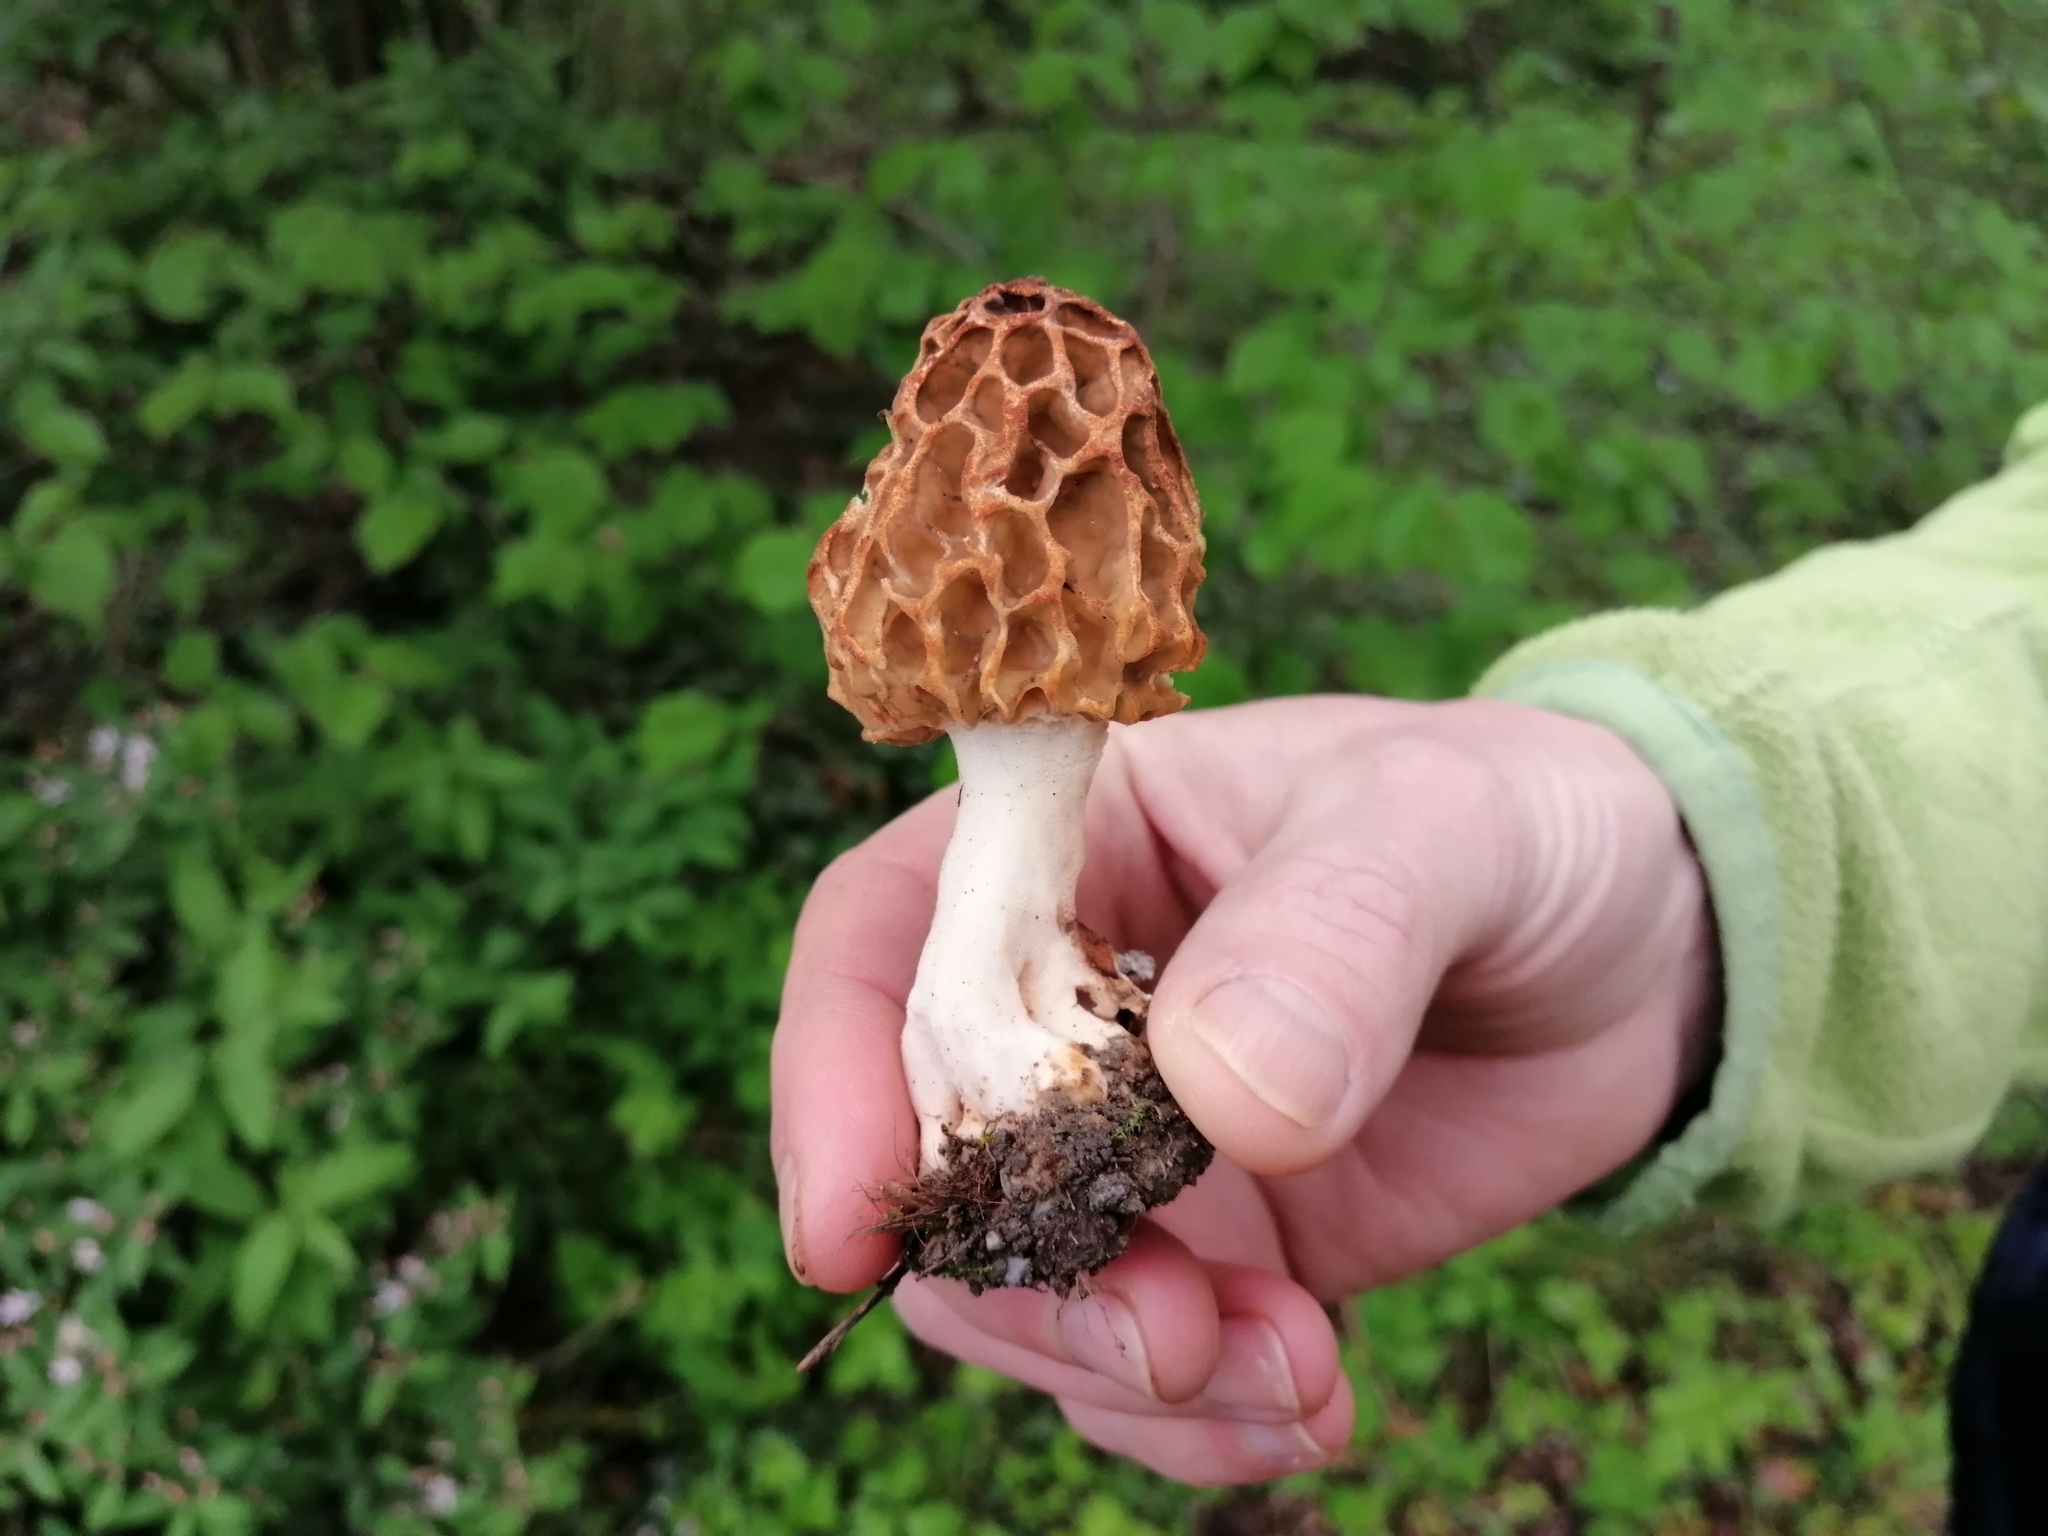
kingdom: Fungi
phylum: Ascomycota
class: Pezizomycetes
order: Pezizales
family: Morchellaceae
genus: Morchella
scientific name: Morchella esculenta
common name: Morel
